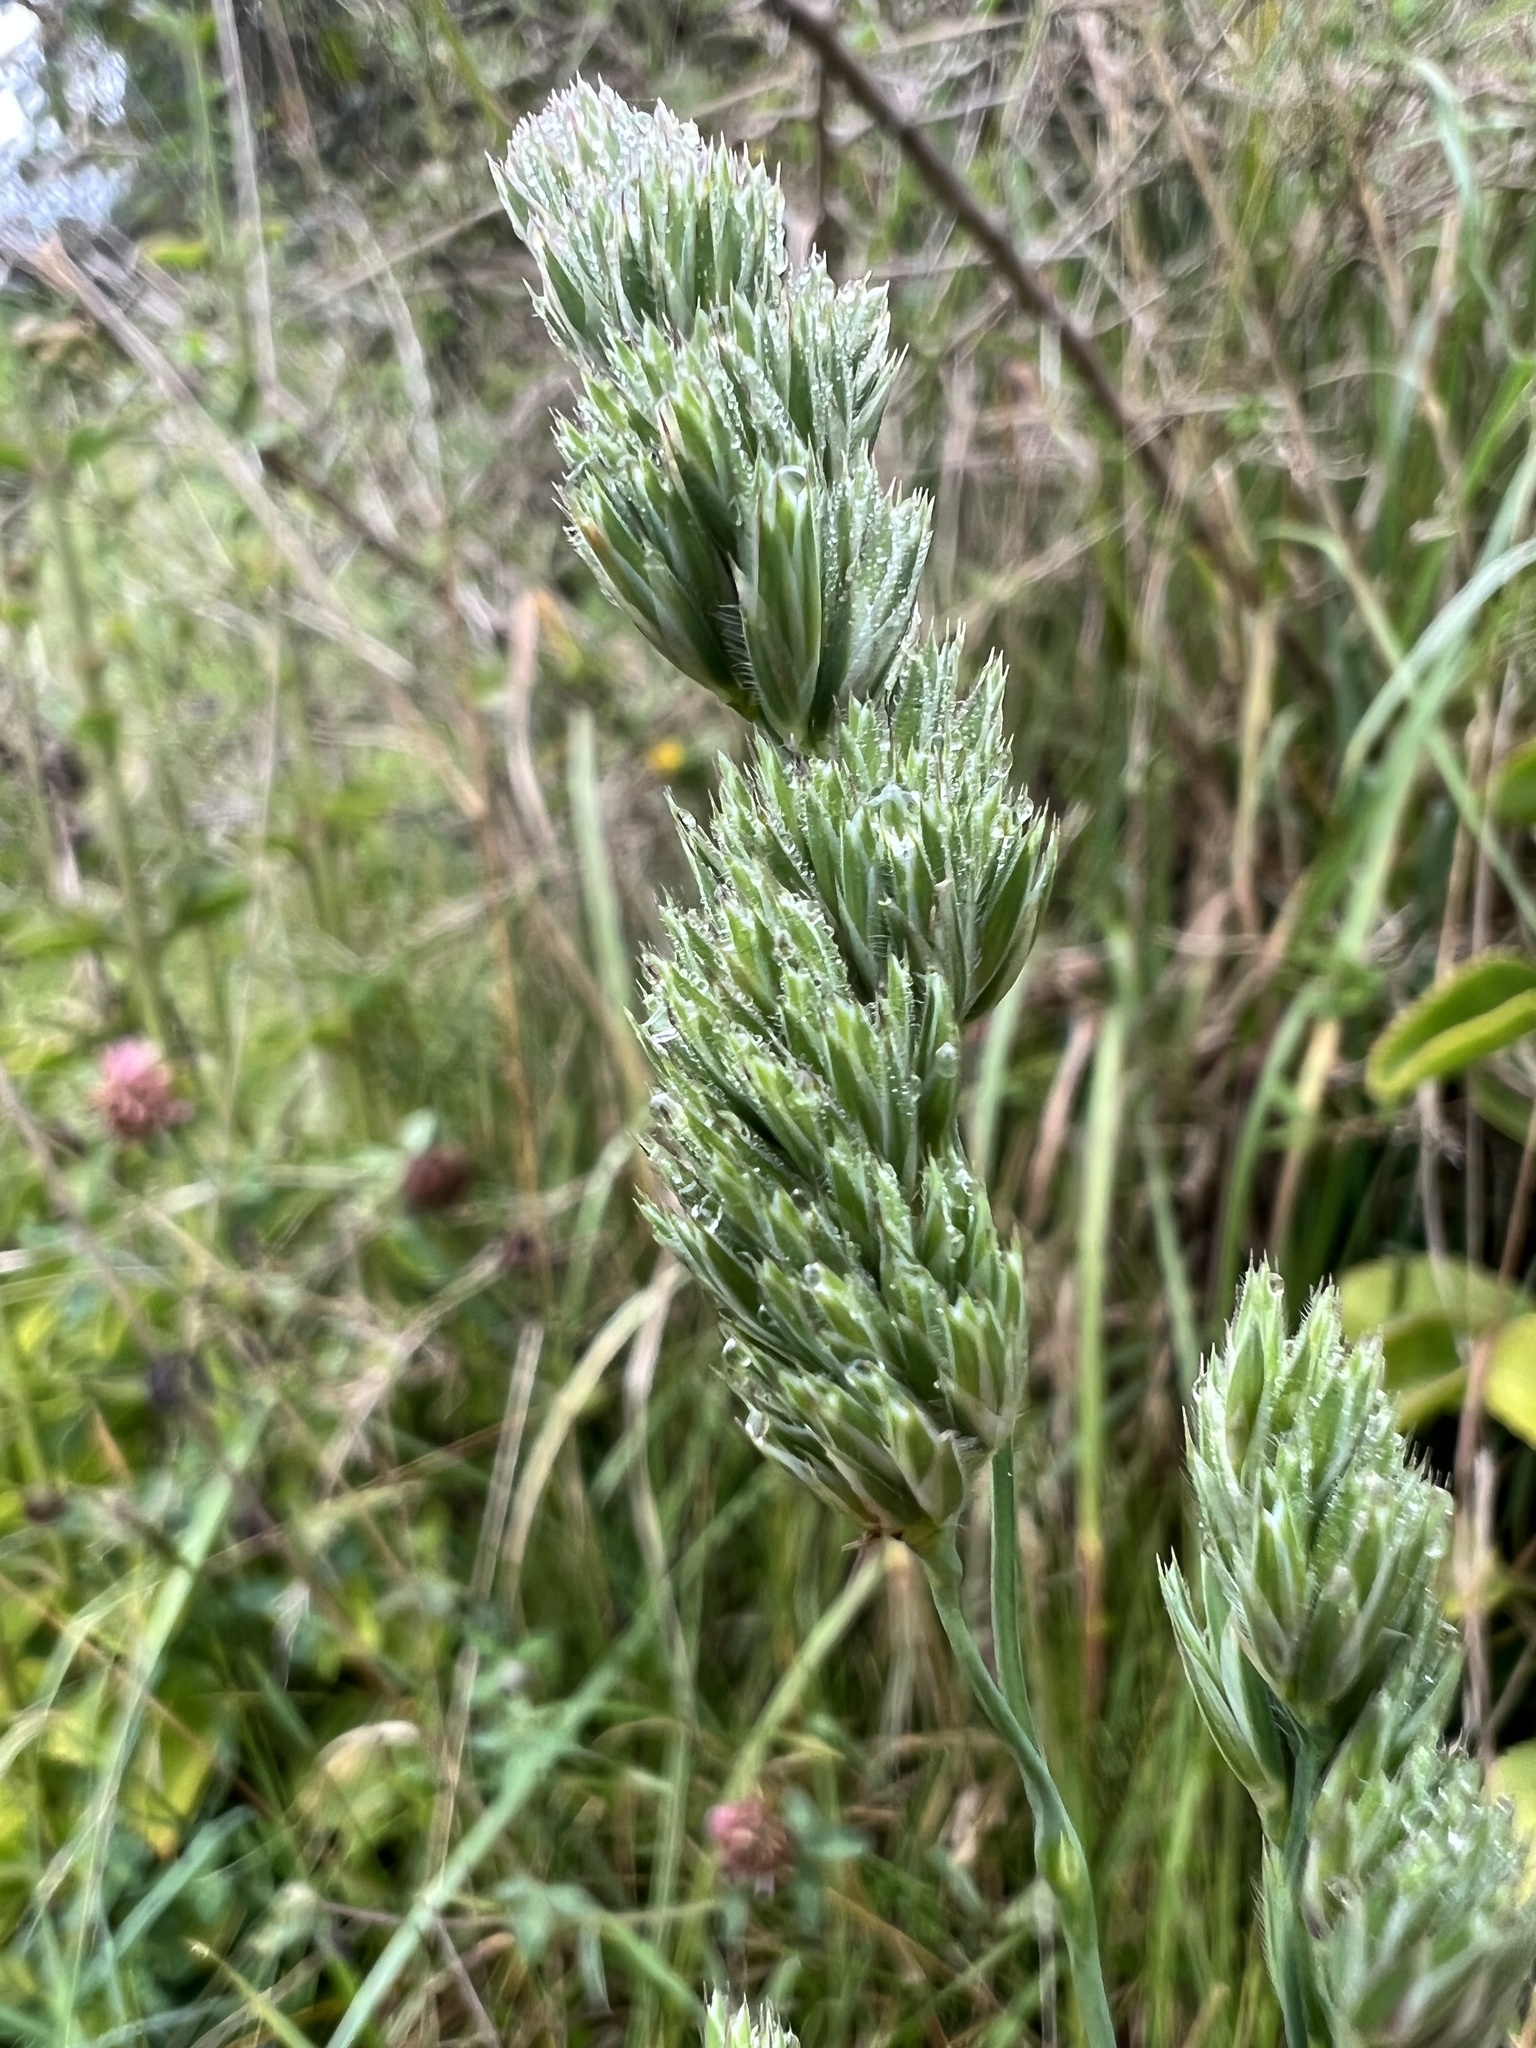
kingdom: Plantae
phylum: Tracheophyta
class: Liliopsida
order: Poales
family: Poaceae
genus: Dactylis
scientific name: Dactylis glomerata
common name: Orchardgrass
